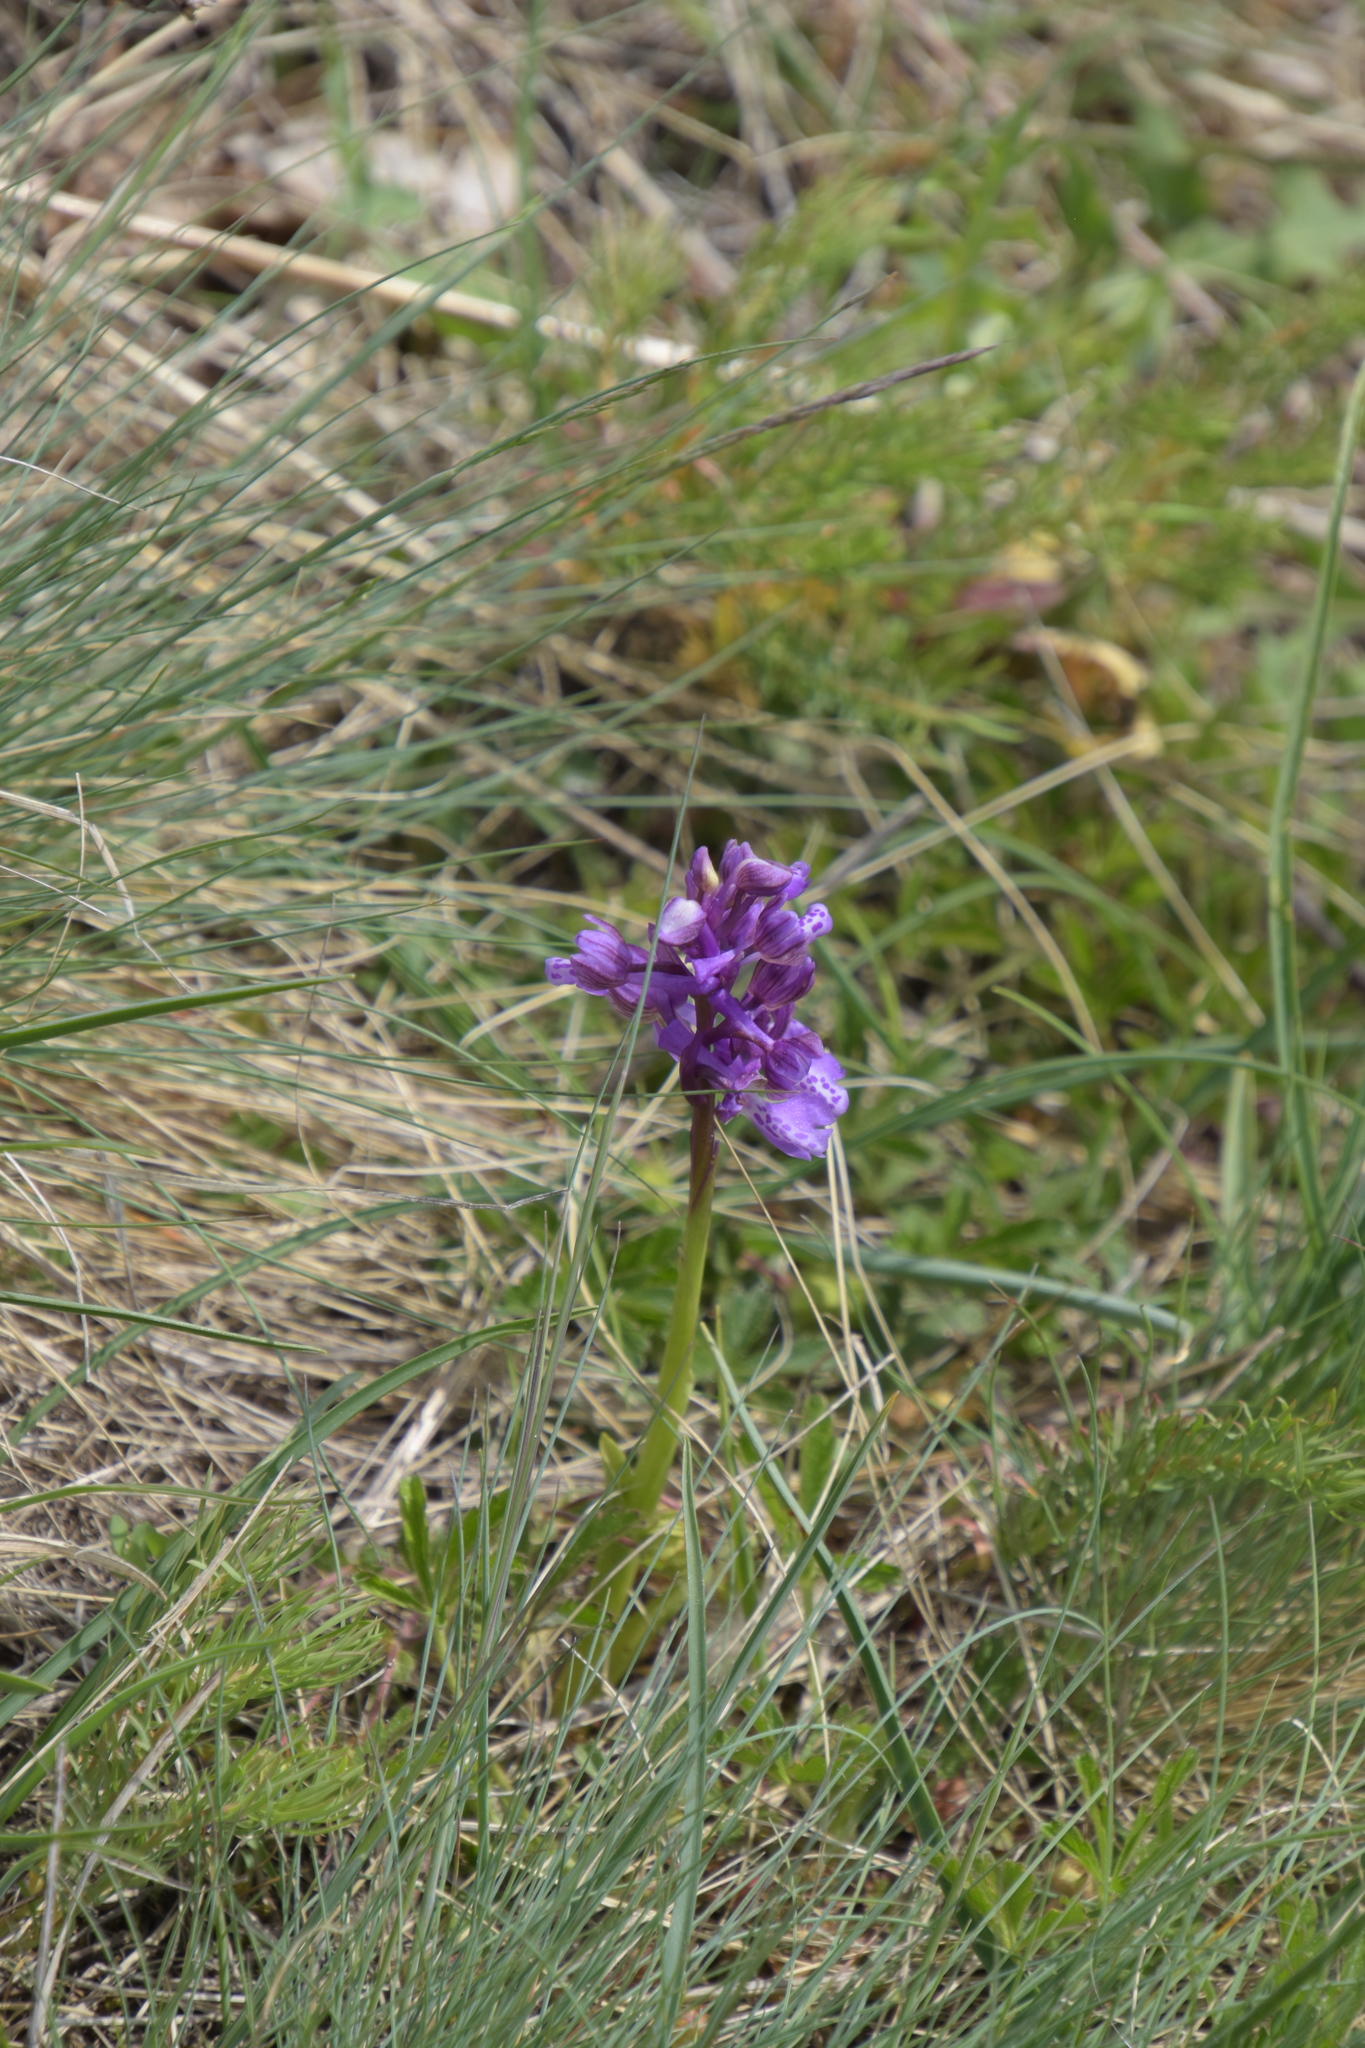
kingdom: Plantae
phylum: Tracheophyta
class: Liliopsida
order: Asparagales
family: Orchidaceae
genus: Anacamptis
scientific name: Anacamptis morio
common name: Green-winged orchid
